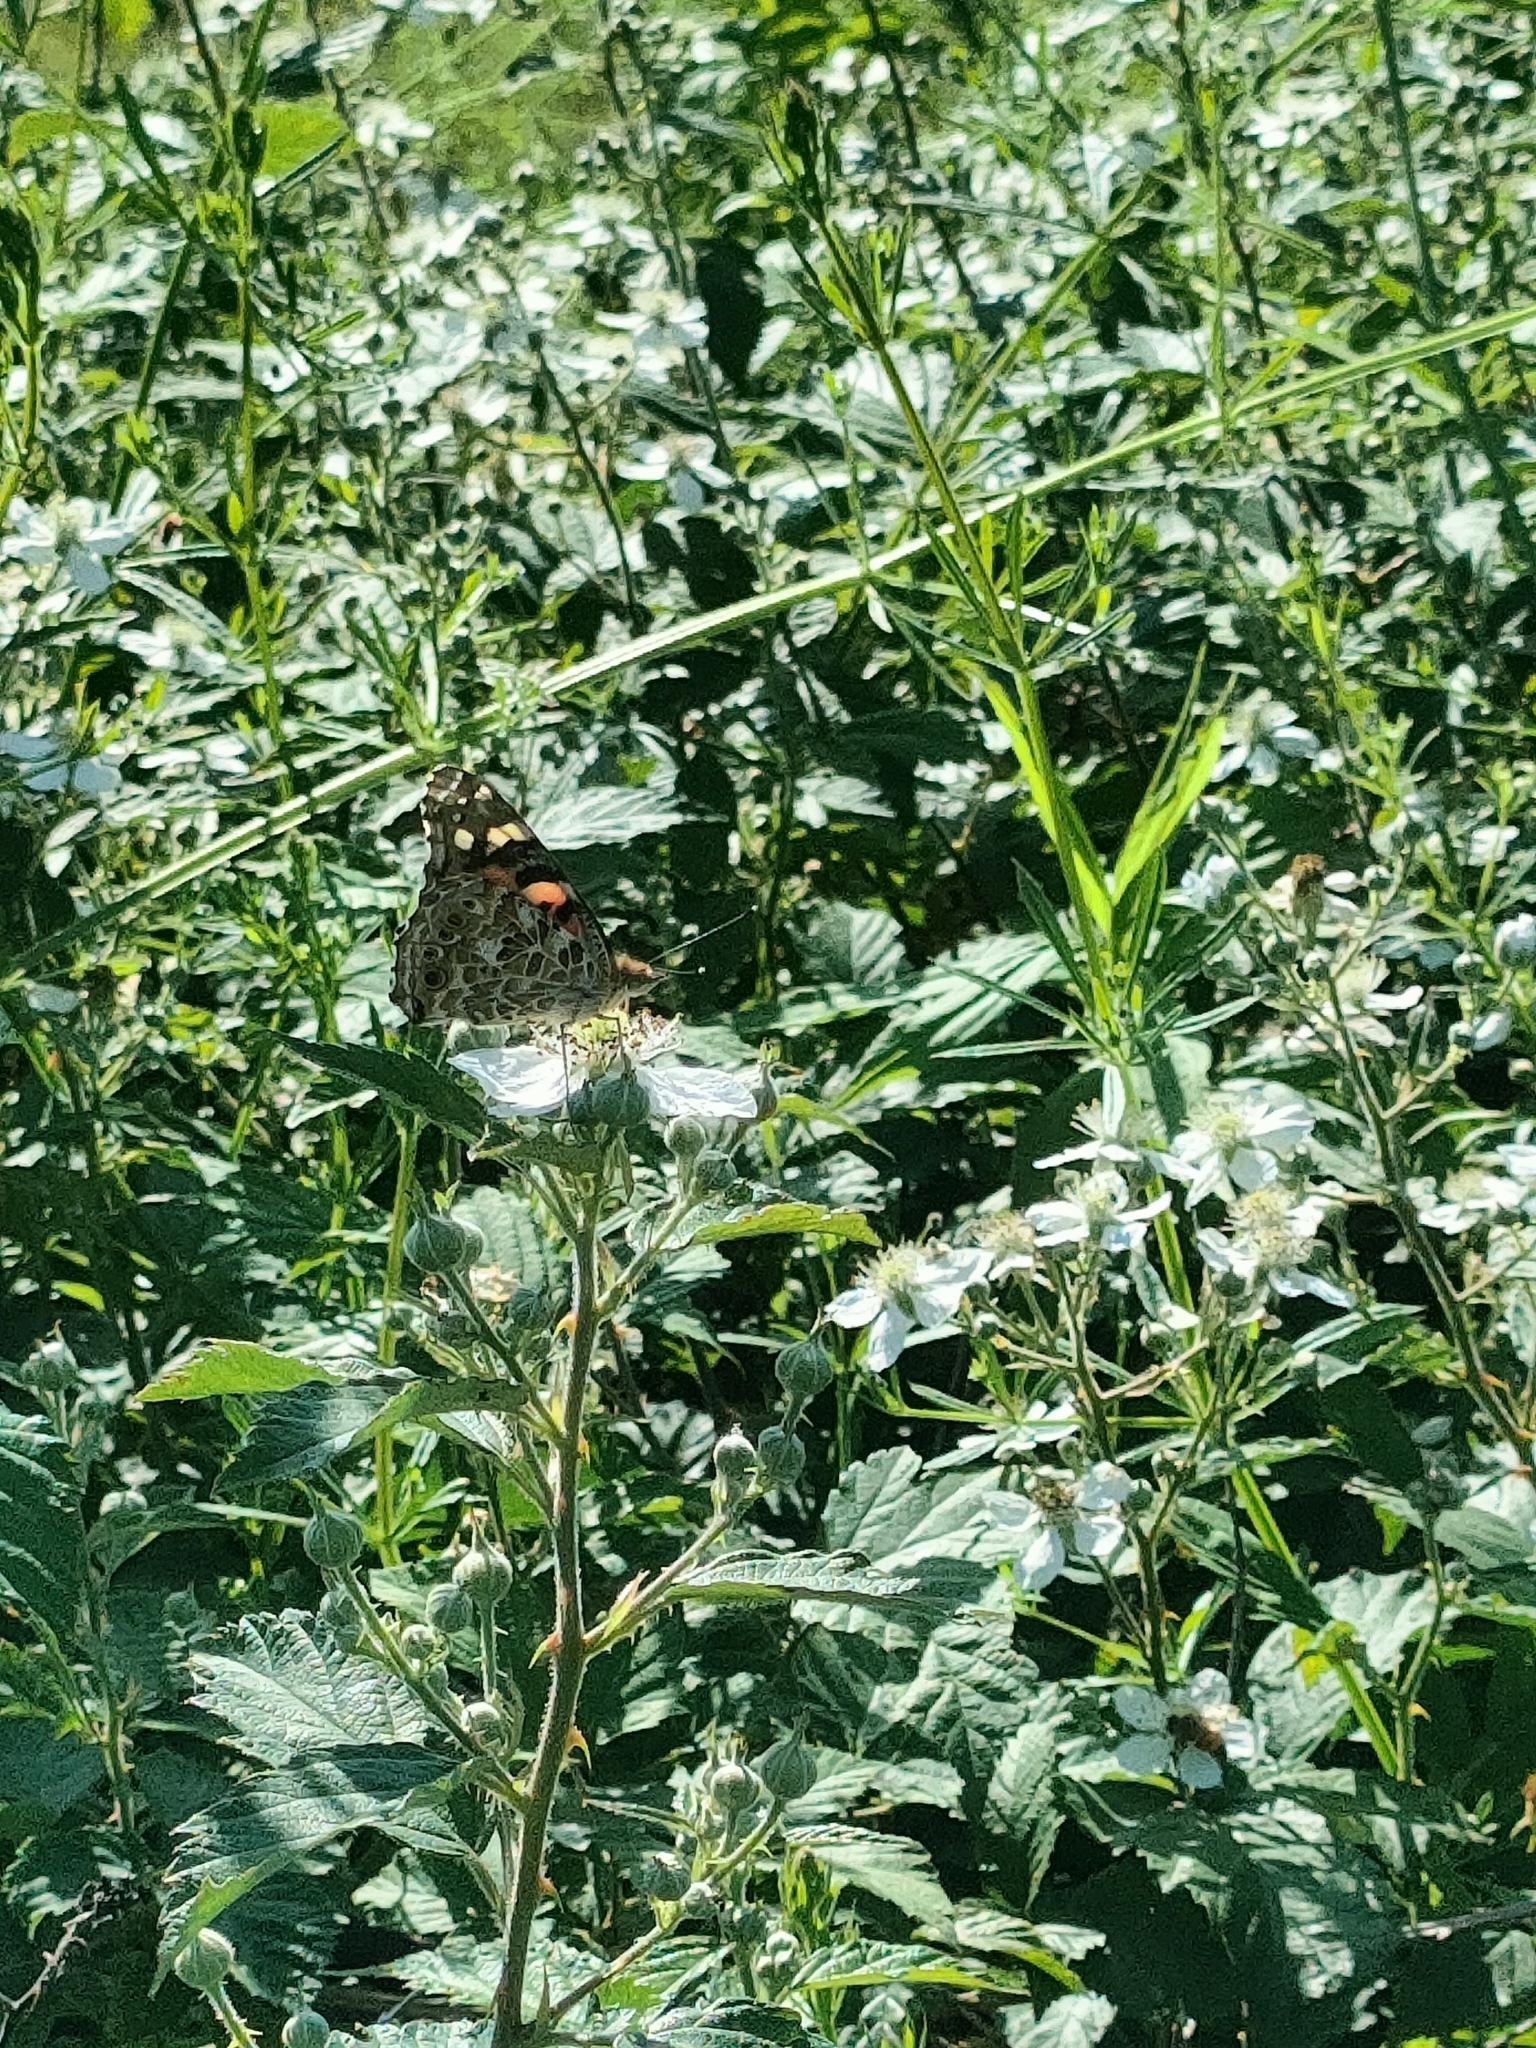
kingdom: Animalia
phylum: Arthropoda
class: Insecta
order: Lepidoptera
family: Nymphalidae
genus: Vanessa
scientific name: Vanessa cardui
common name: Painted lady
